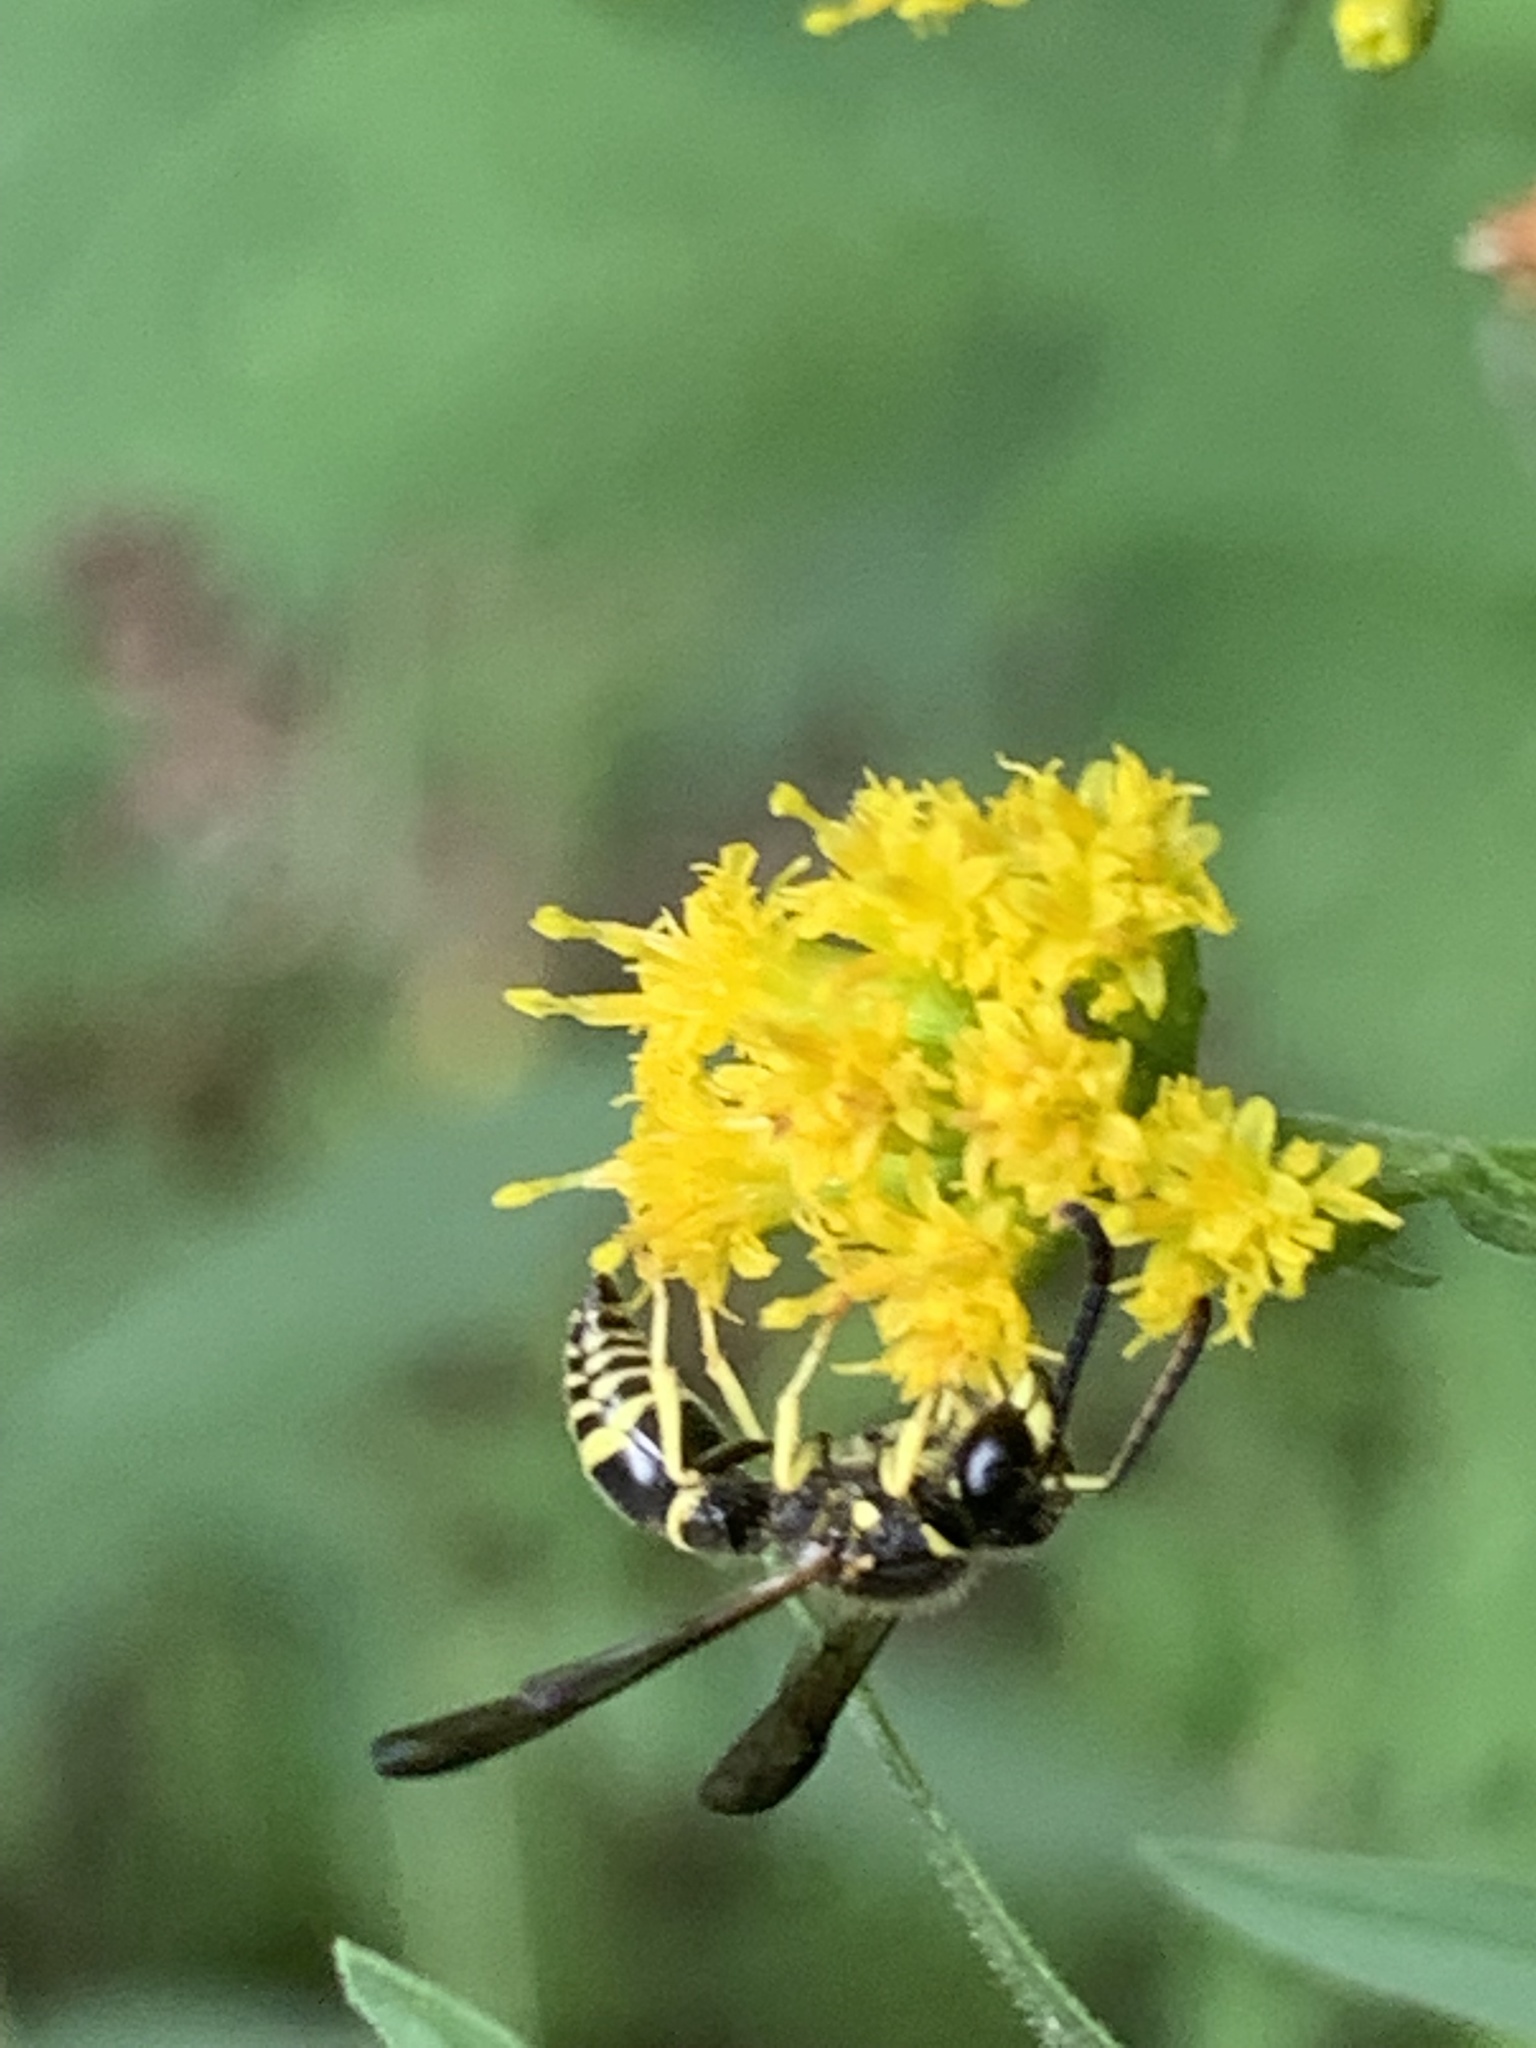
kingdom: Animalia
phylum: Arthropoda
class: Insecta
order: Hymenoptera
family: Vespidae
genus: Ancistrocerus
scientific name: Ancistrocerus
